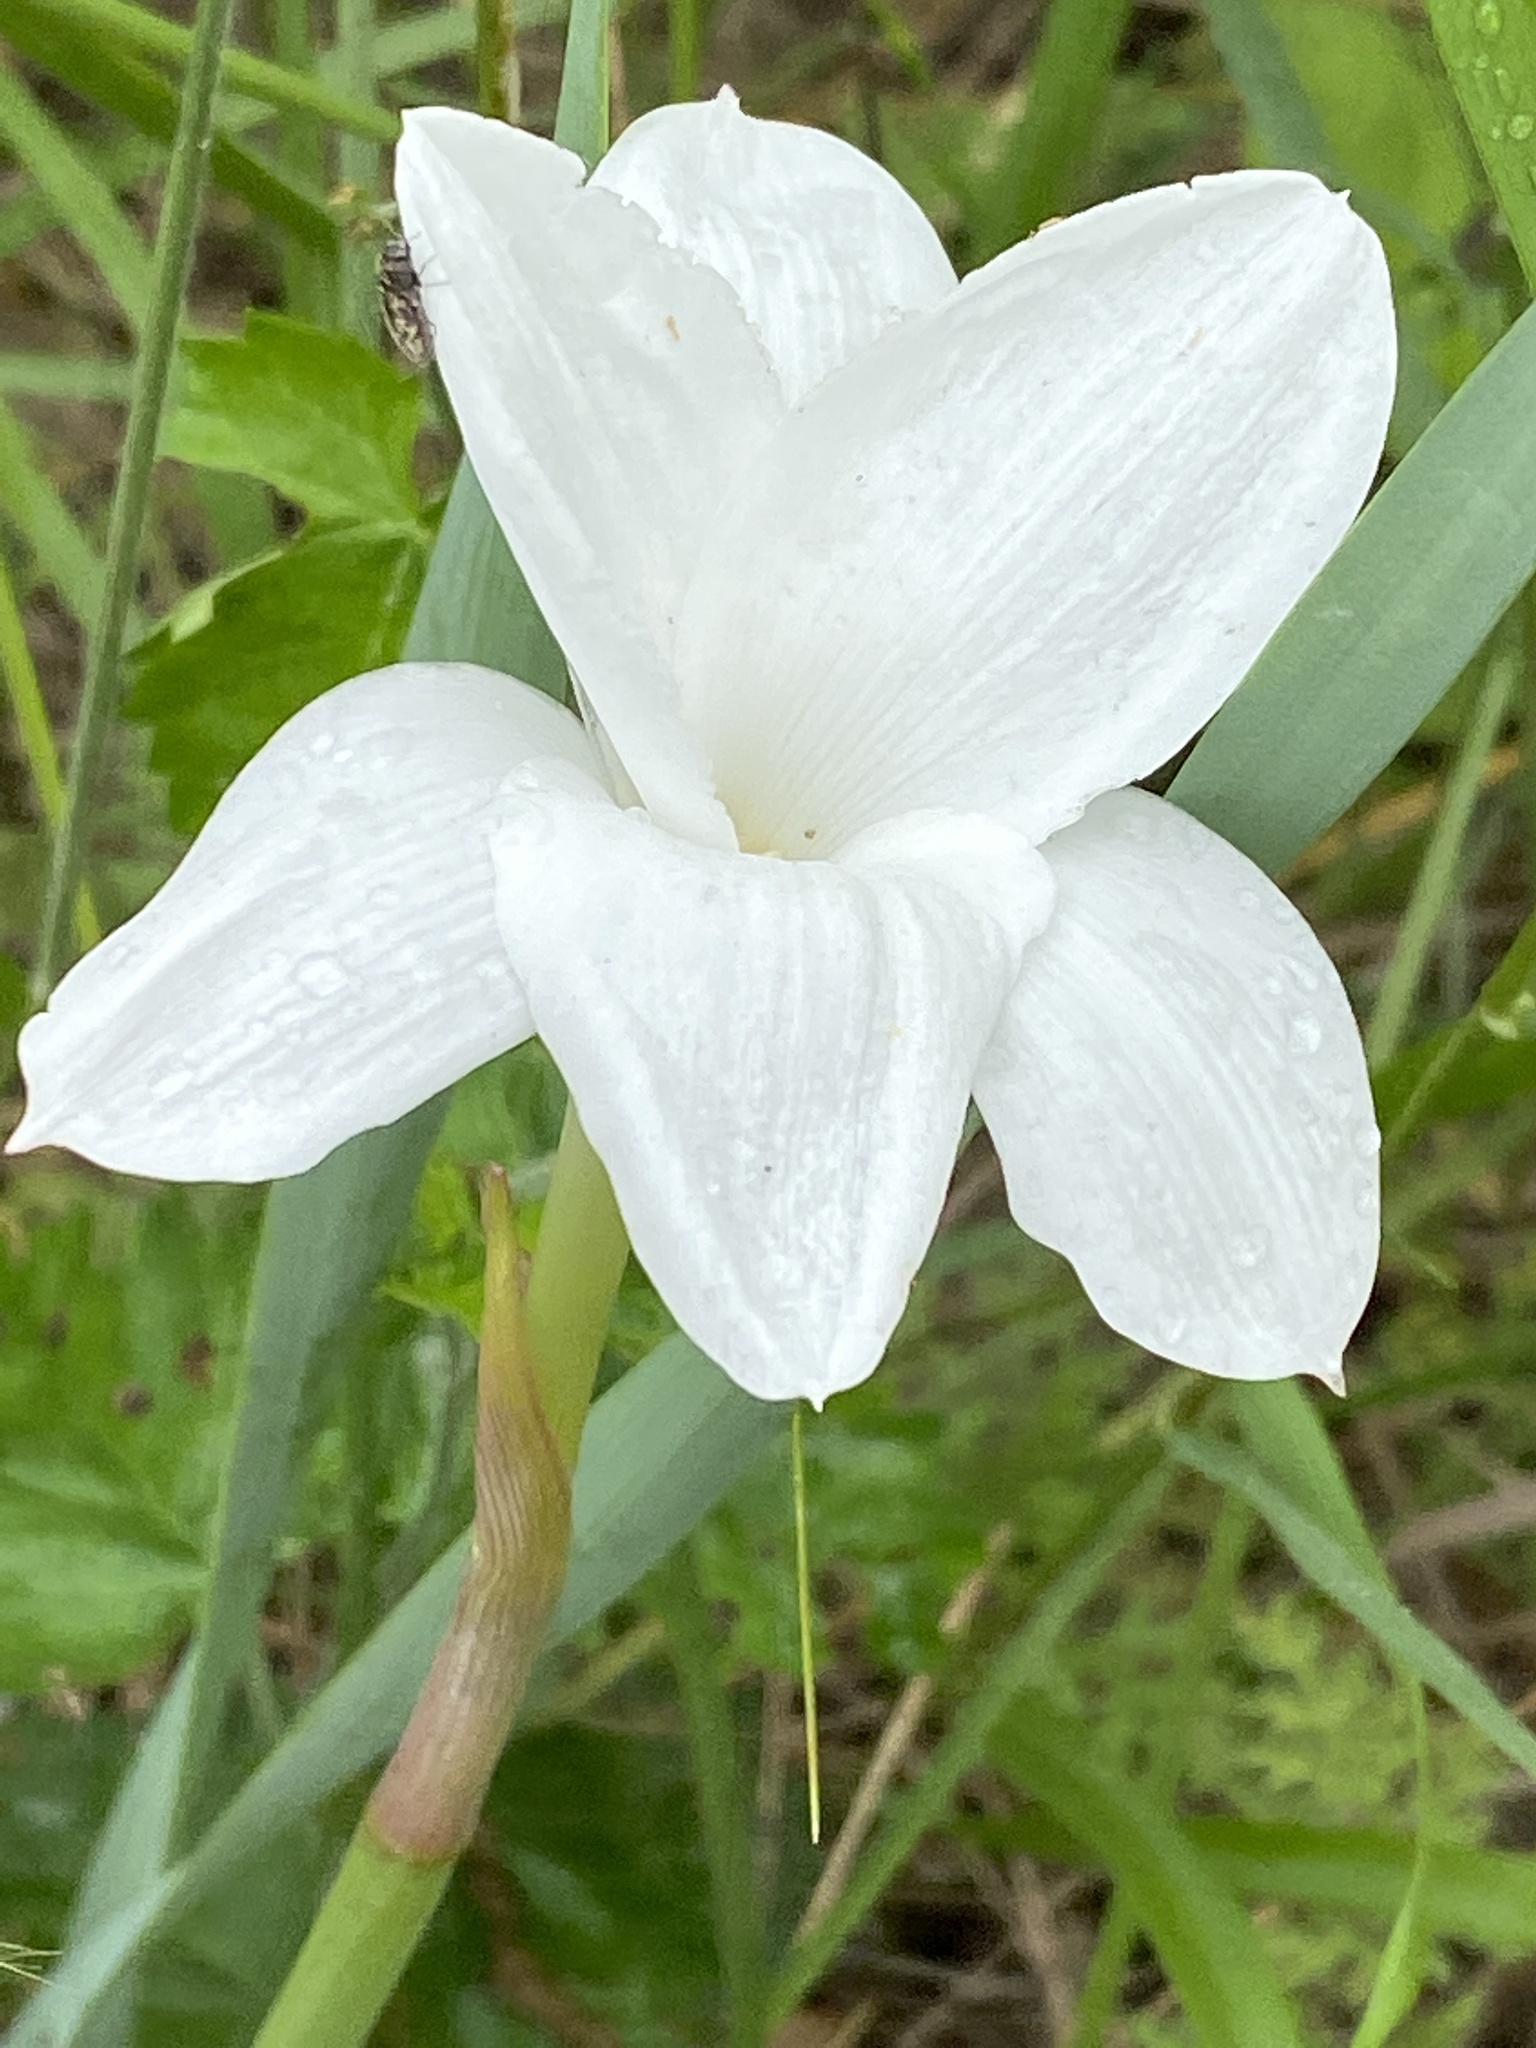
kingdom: Plantae
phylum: Tracheophyta
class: Liliopsida
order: Asparagales
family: Amaryllidaceae
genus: Zephyranthes
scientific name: Zephyranthes drummondii
